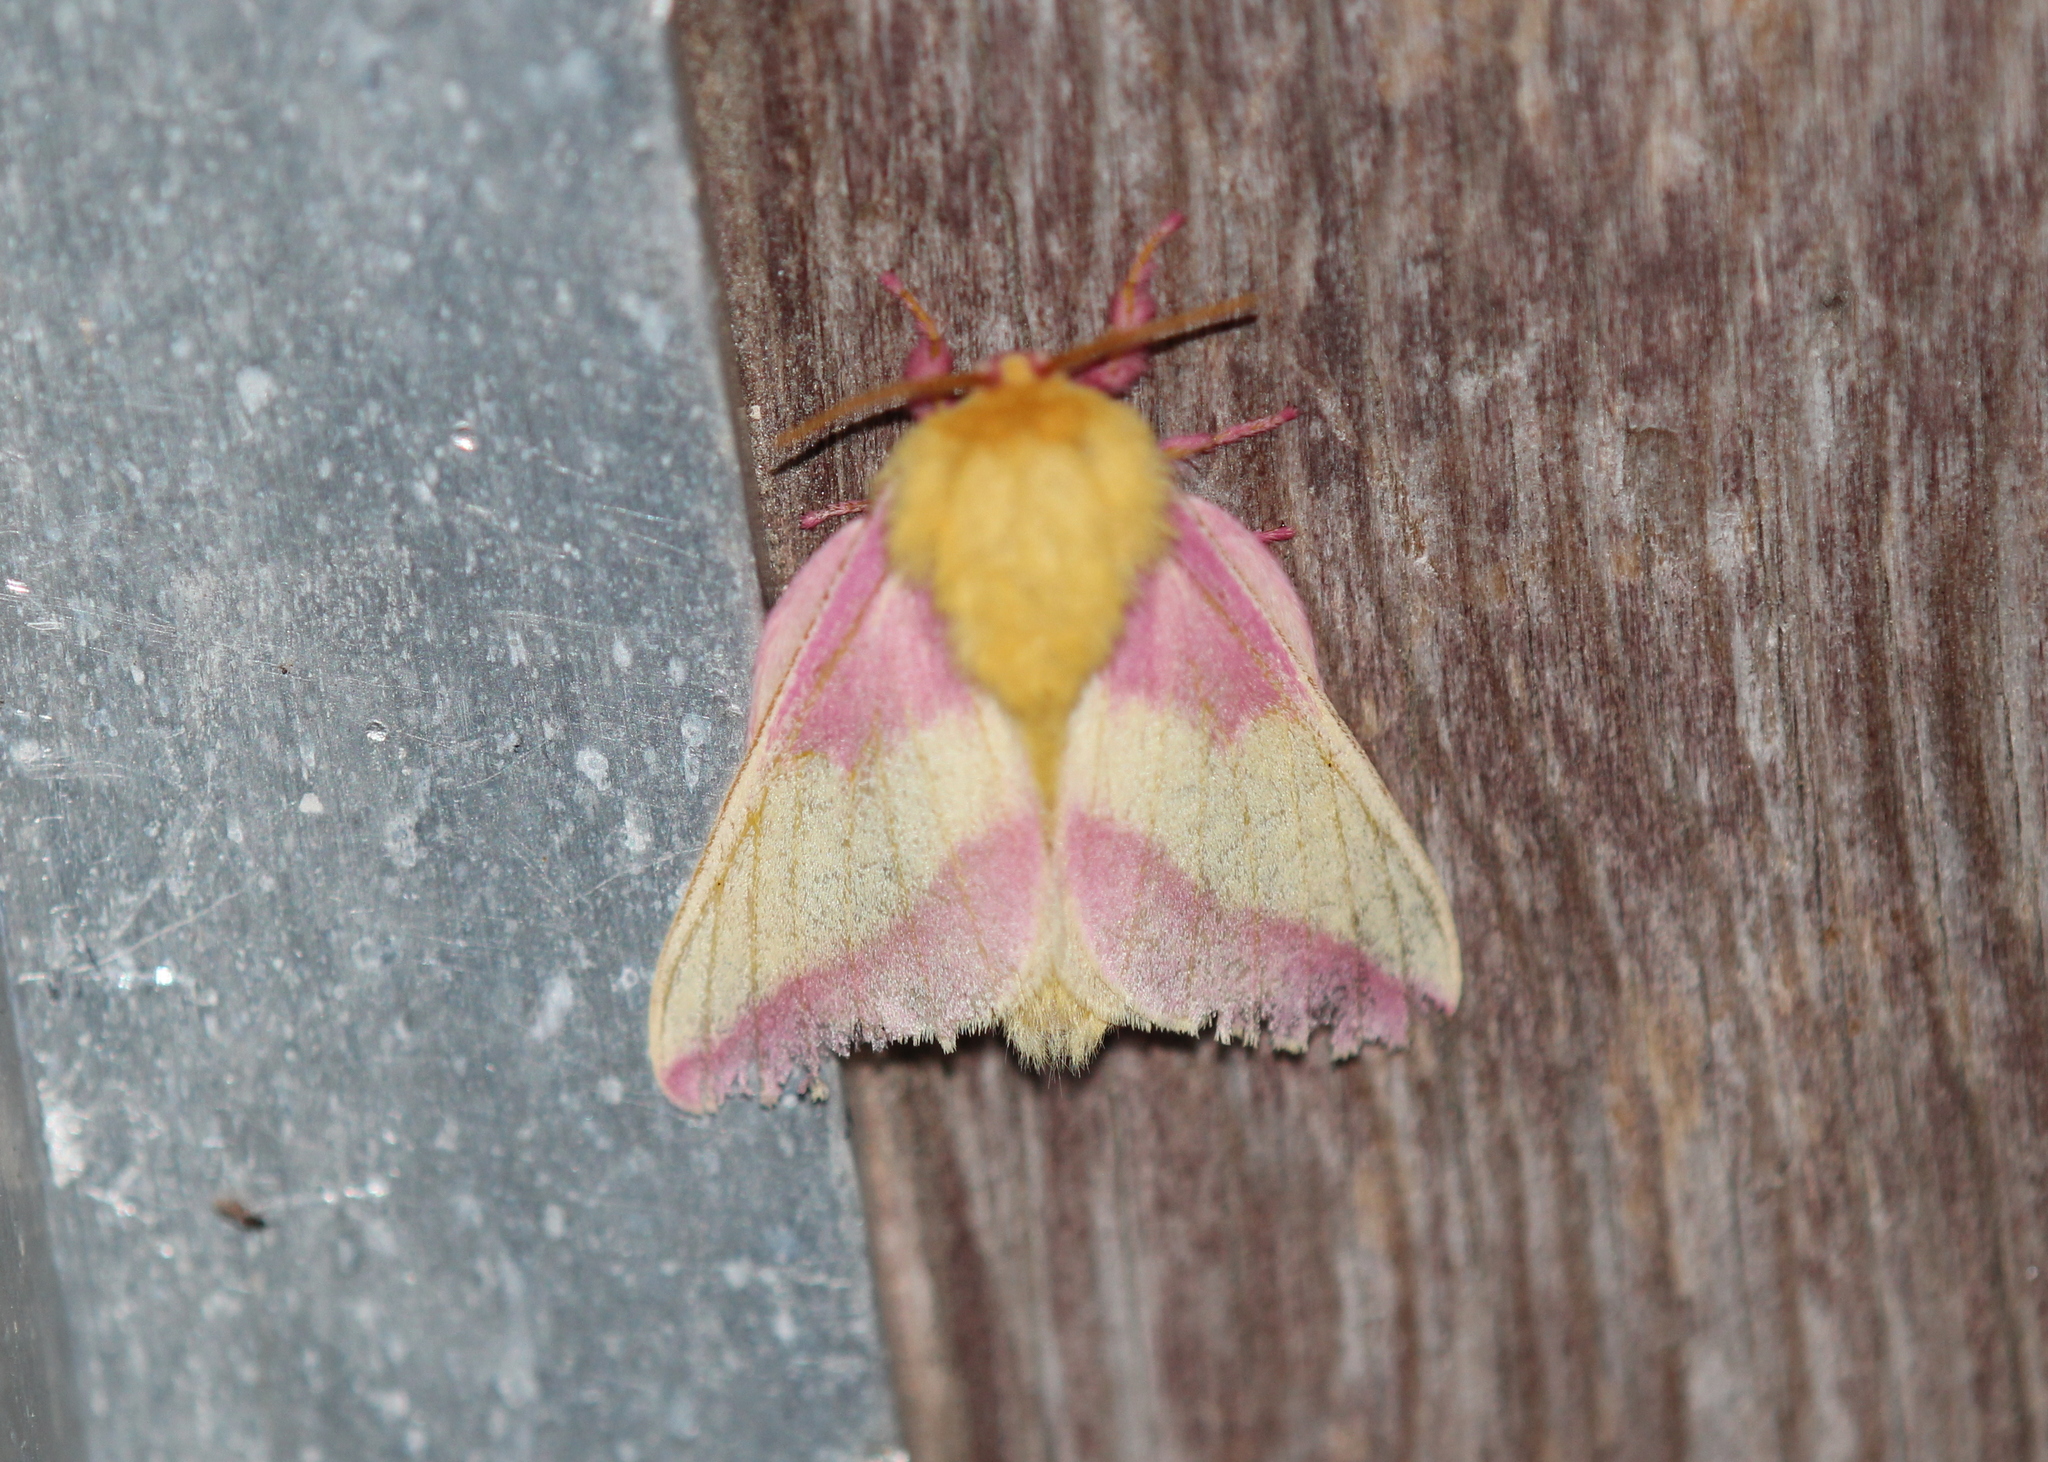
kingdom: Animalia
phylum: Arthropoda
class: Insecta
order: Lepidoptera
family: Saturniidae
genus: Dryocampa
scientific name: Dryocampa rubicunda
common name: Rosy maple moth
